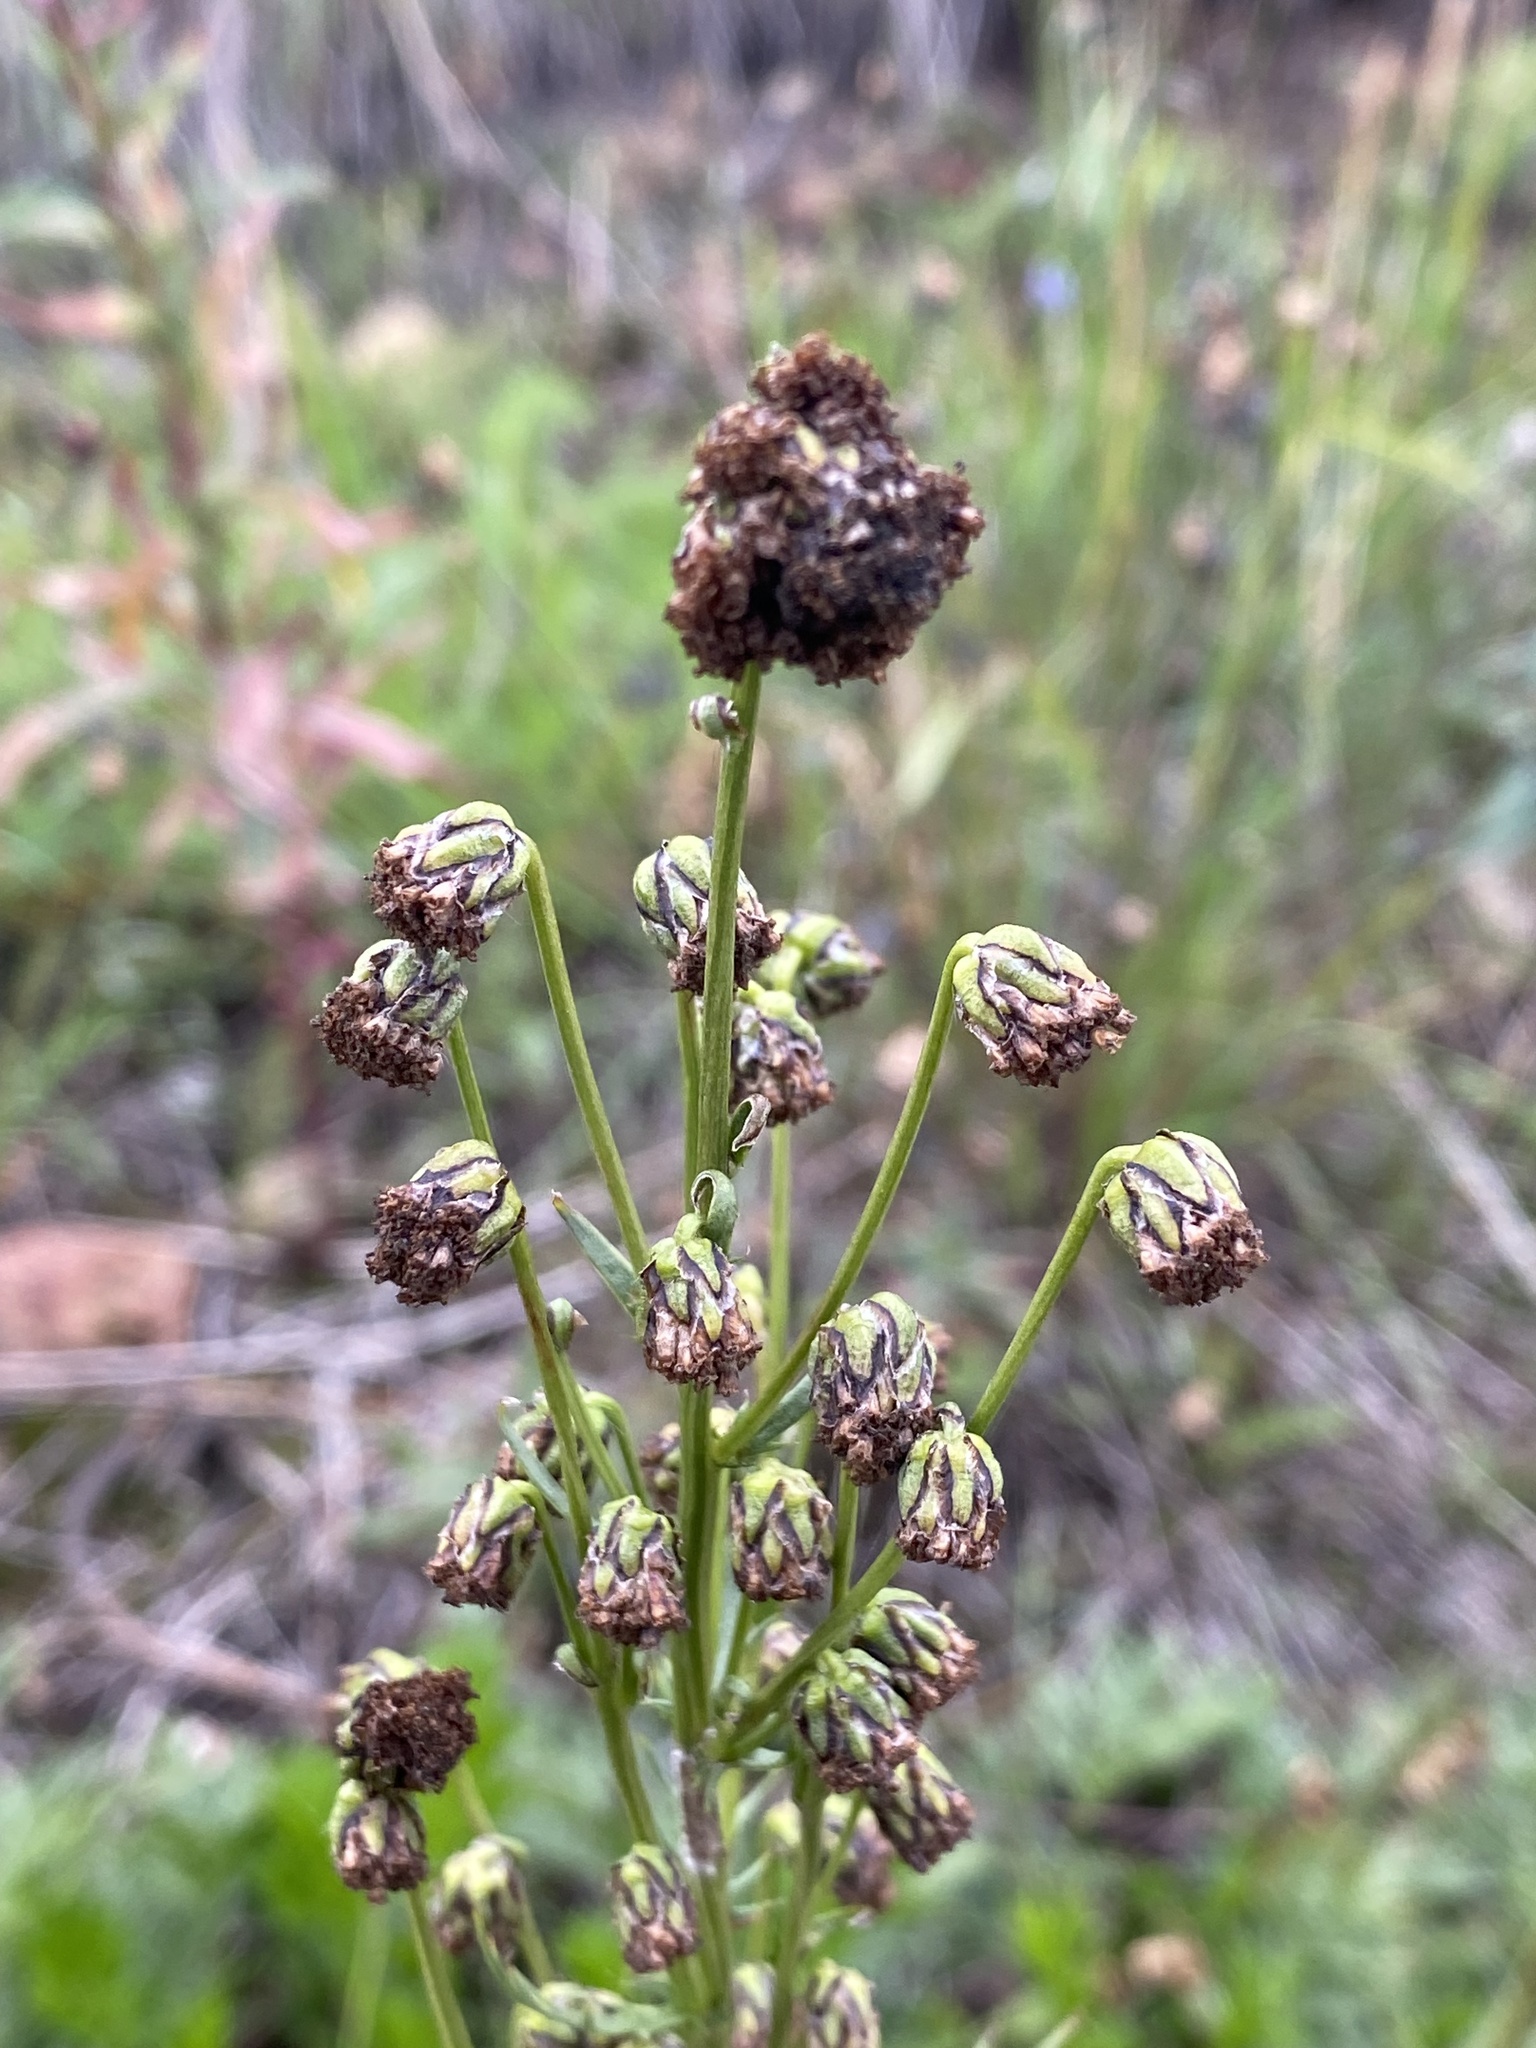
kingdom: Plantae
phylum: Tracheophyta
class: Magnoliopsida
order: Asterales
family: Asteraceae
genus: Artemisia
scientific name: Artemisia norvegica
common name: Norwegian mugwort
